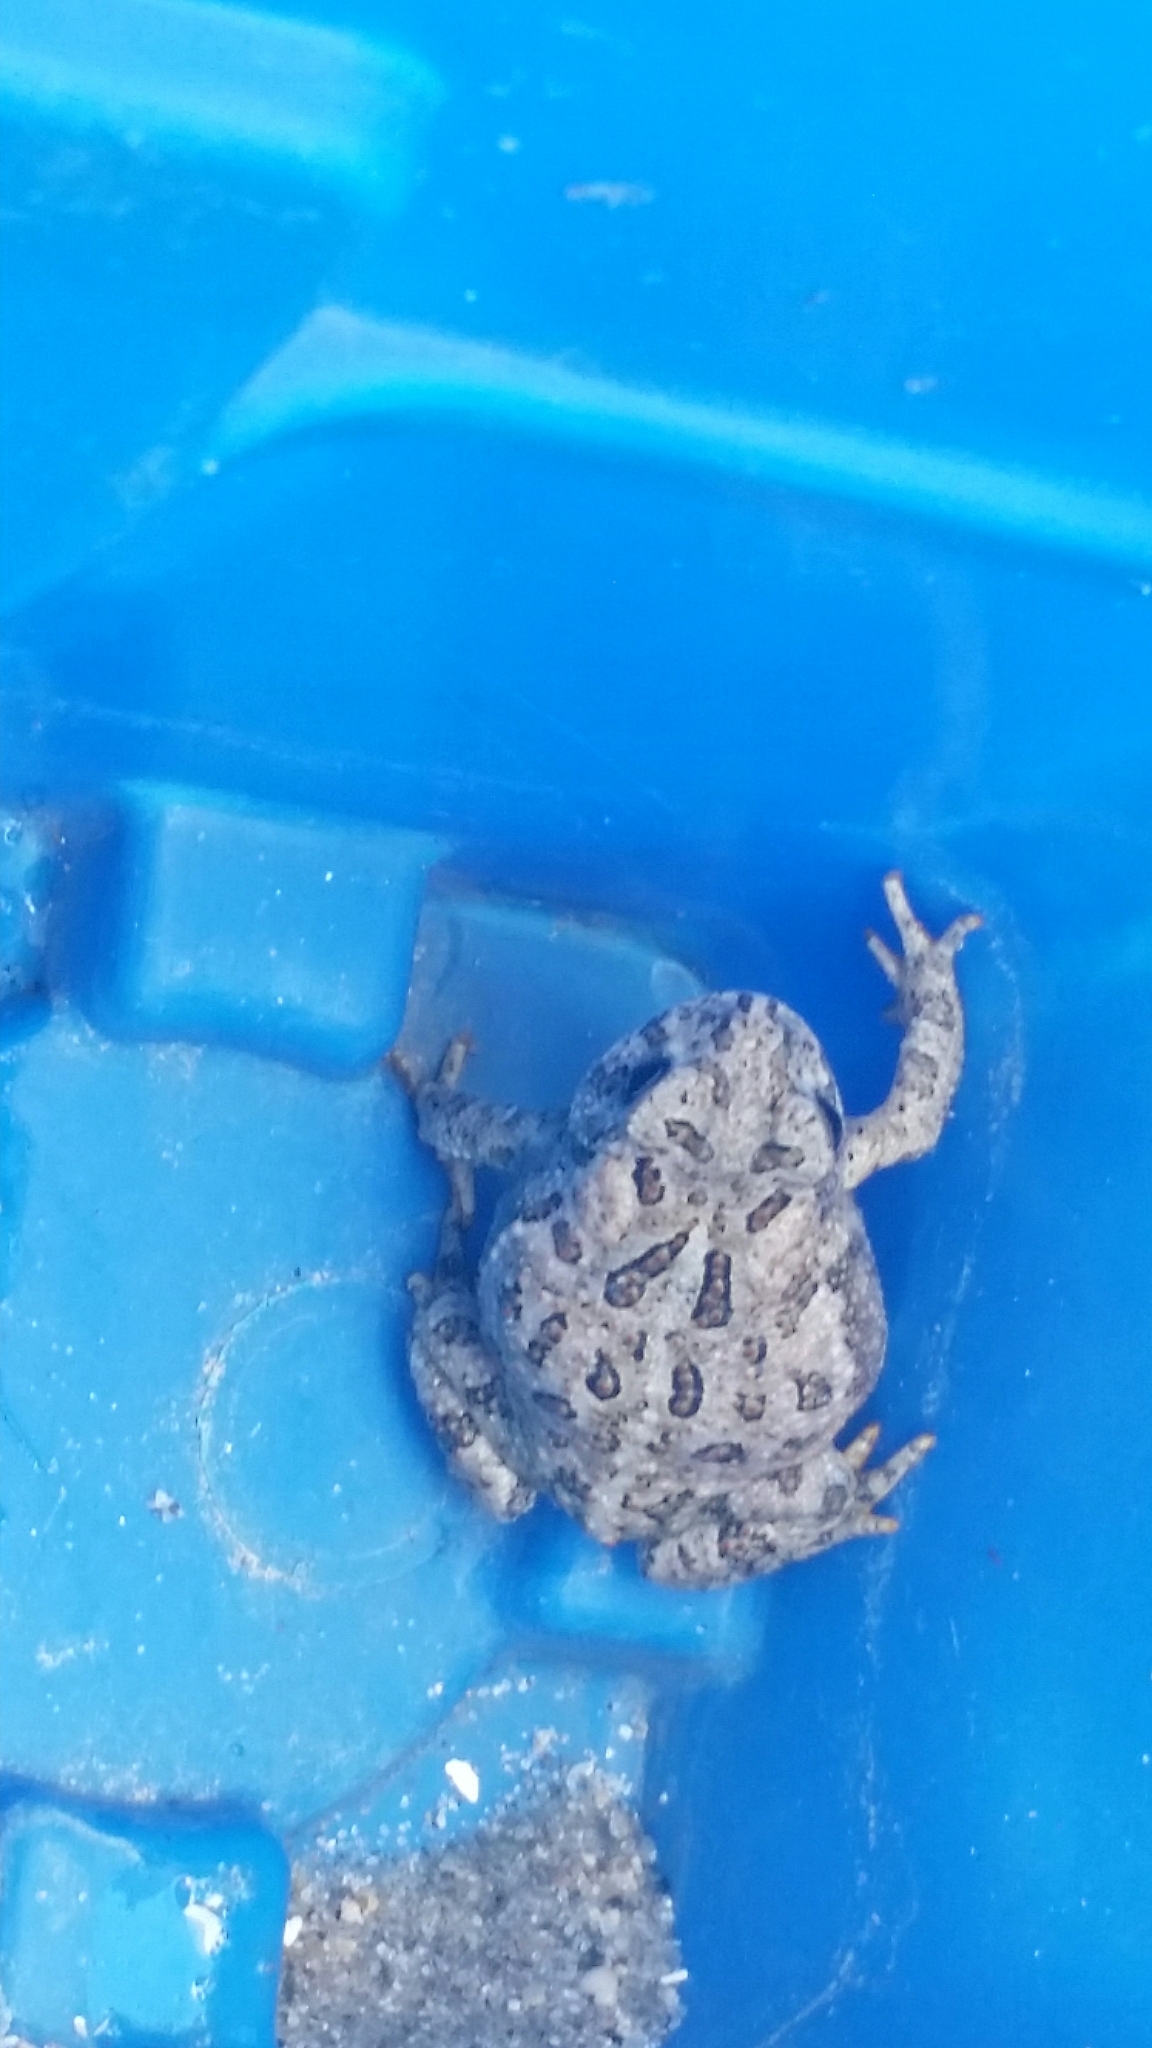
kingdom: Animalia
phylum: Chordata
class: Amphibia
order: Anura
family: Bufonidae
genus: Anaxyrus
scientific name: Anaxyrus hemiophrys
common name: Canadian toad
